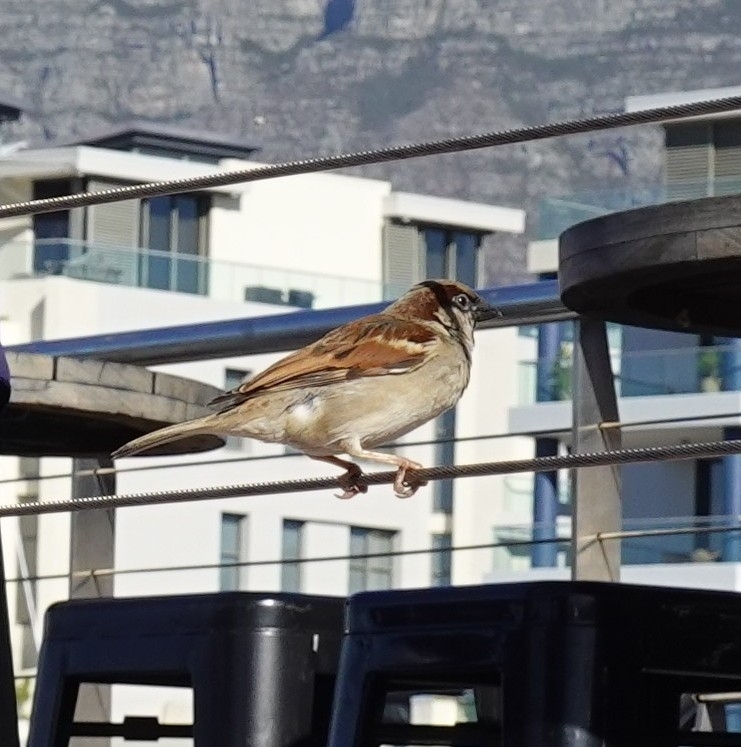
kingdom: Animalia
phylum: Chordata
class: Aves
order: Passeriformes
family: Passeridae
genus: Passer
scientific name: Passer domesticus
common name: House sparrow
